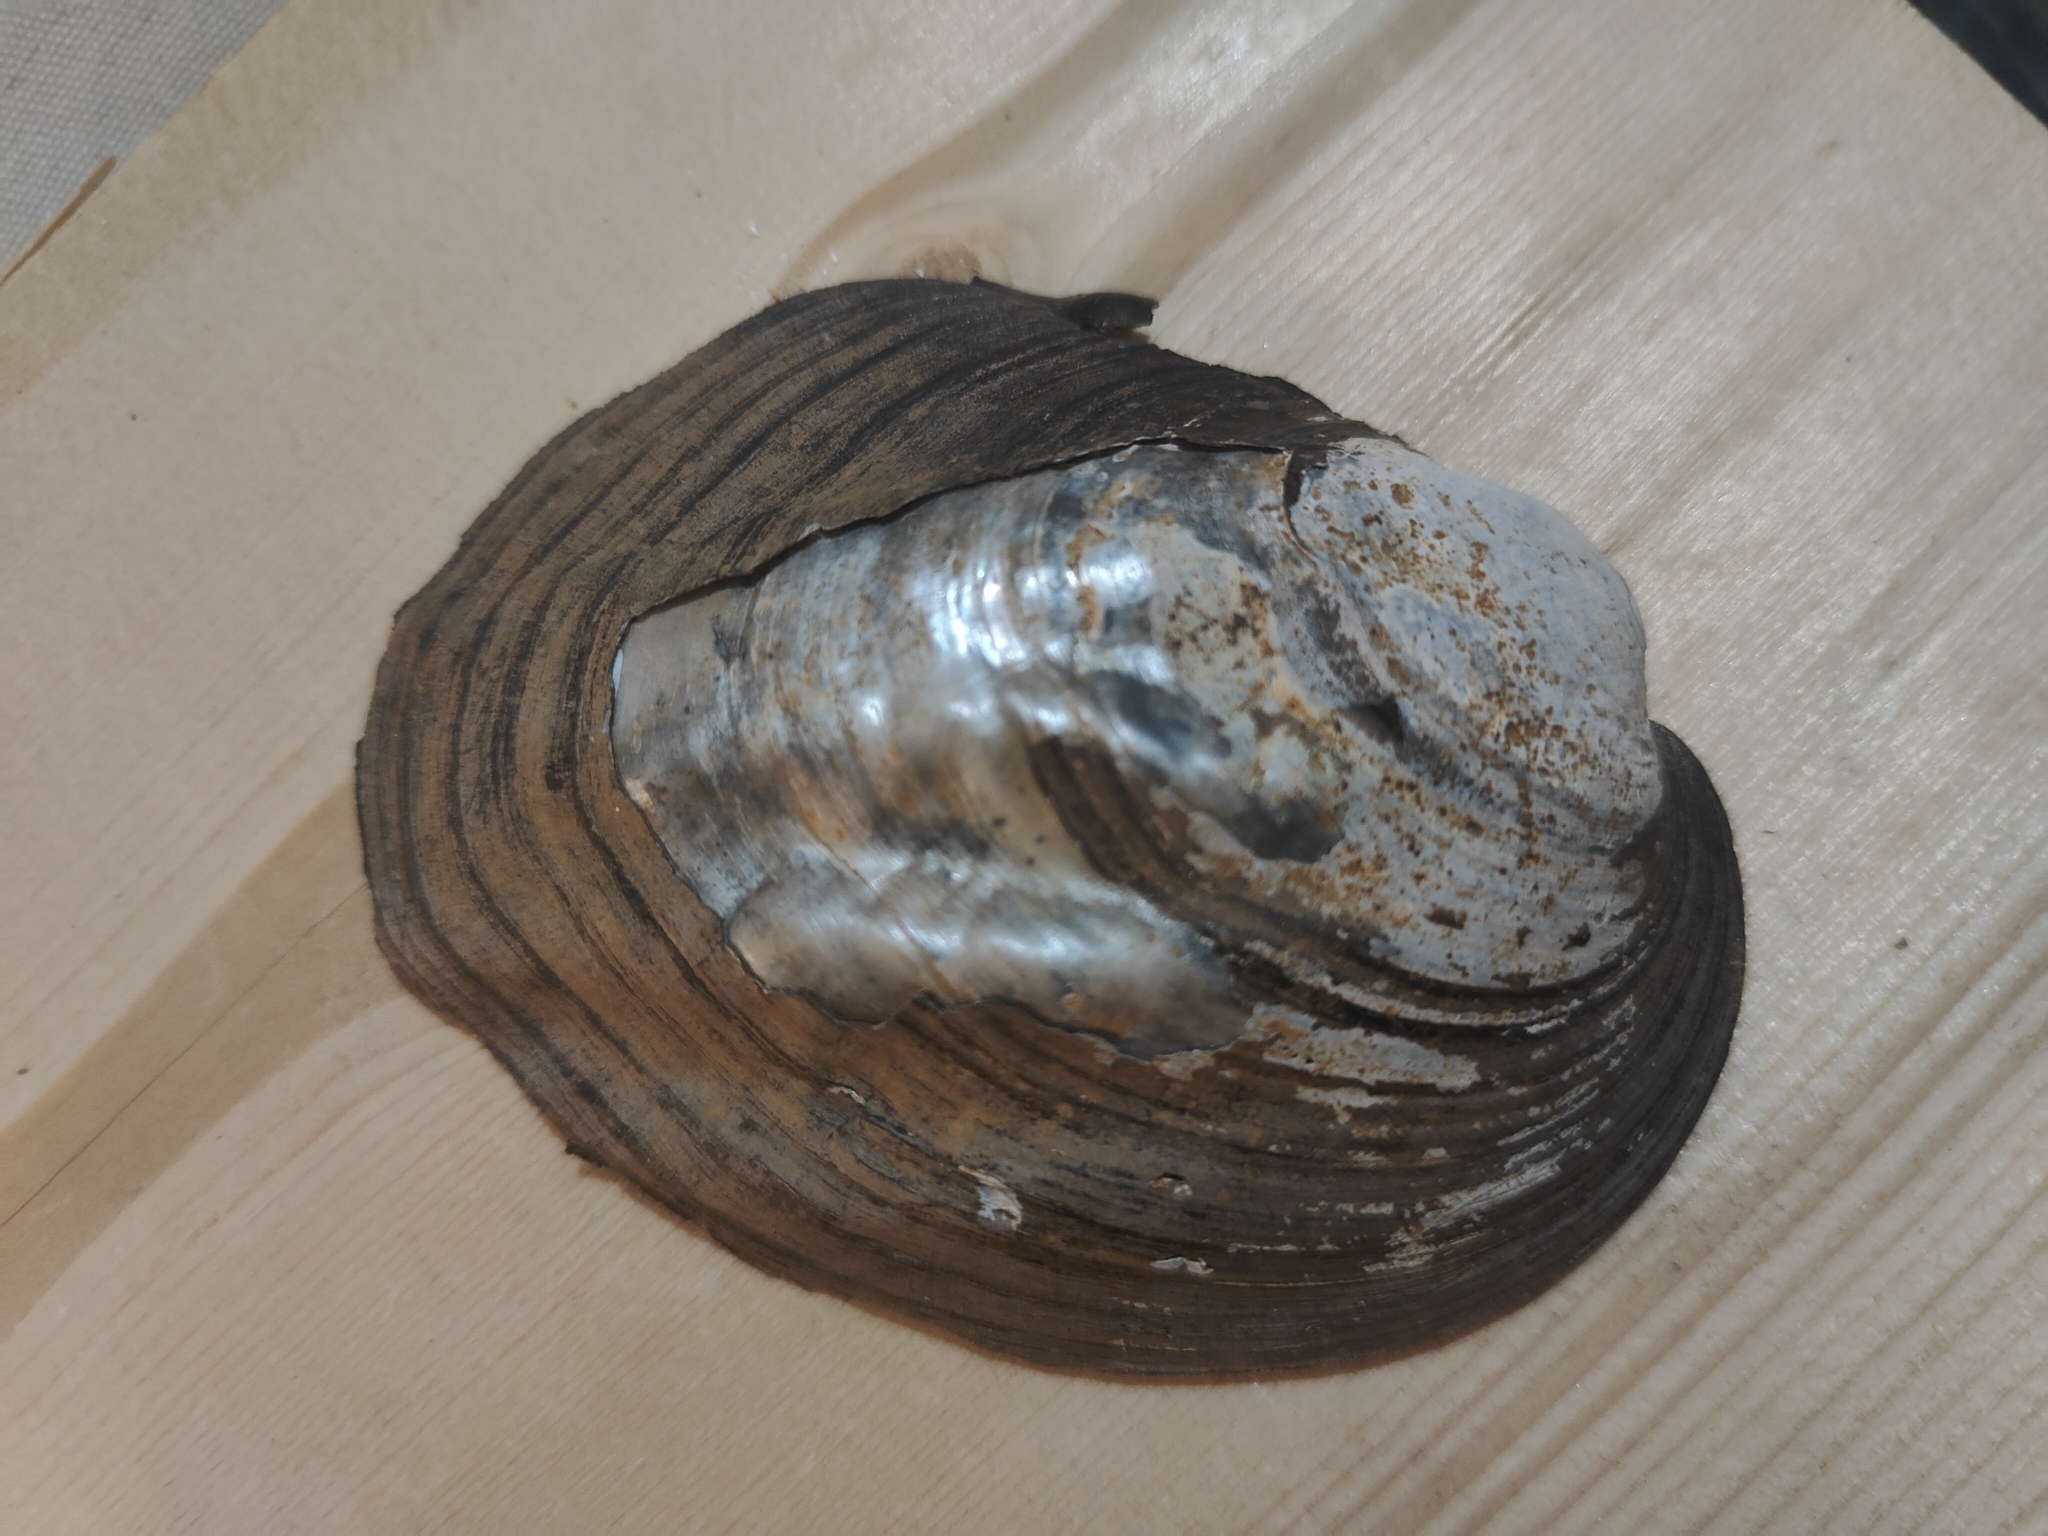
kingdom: Animalia
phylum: Mollusca
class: Bivalvia
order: Unionida
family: Unionidae
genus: Amblema
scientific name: Amblema plicata
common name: Threeridge
